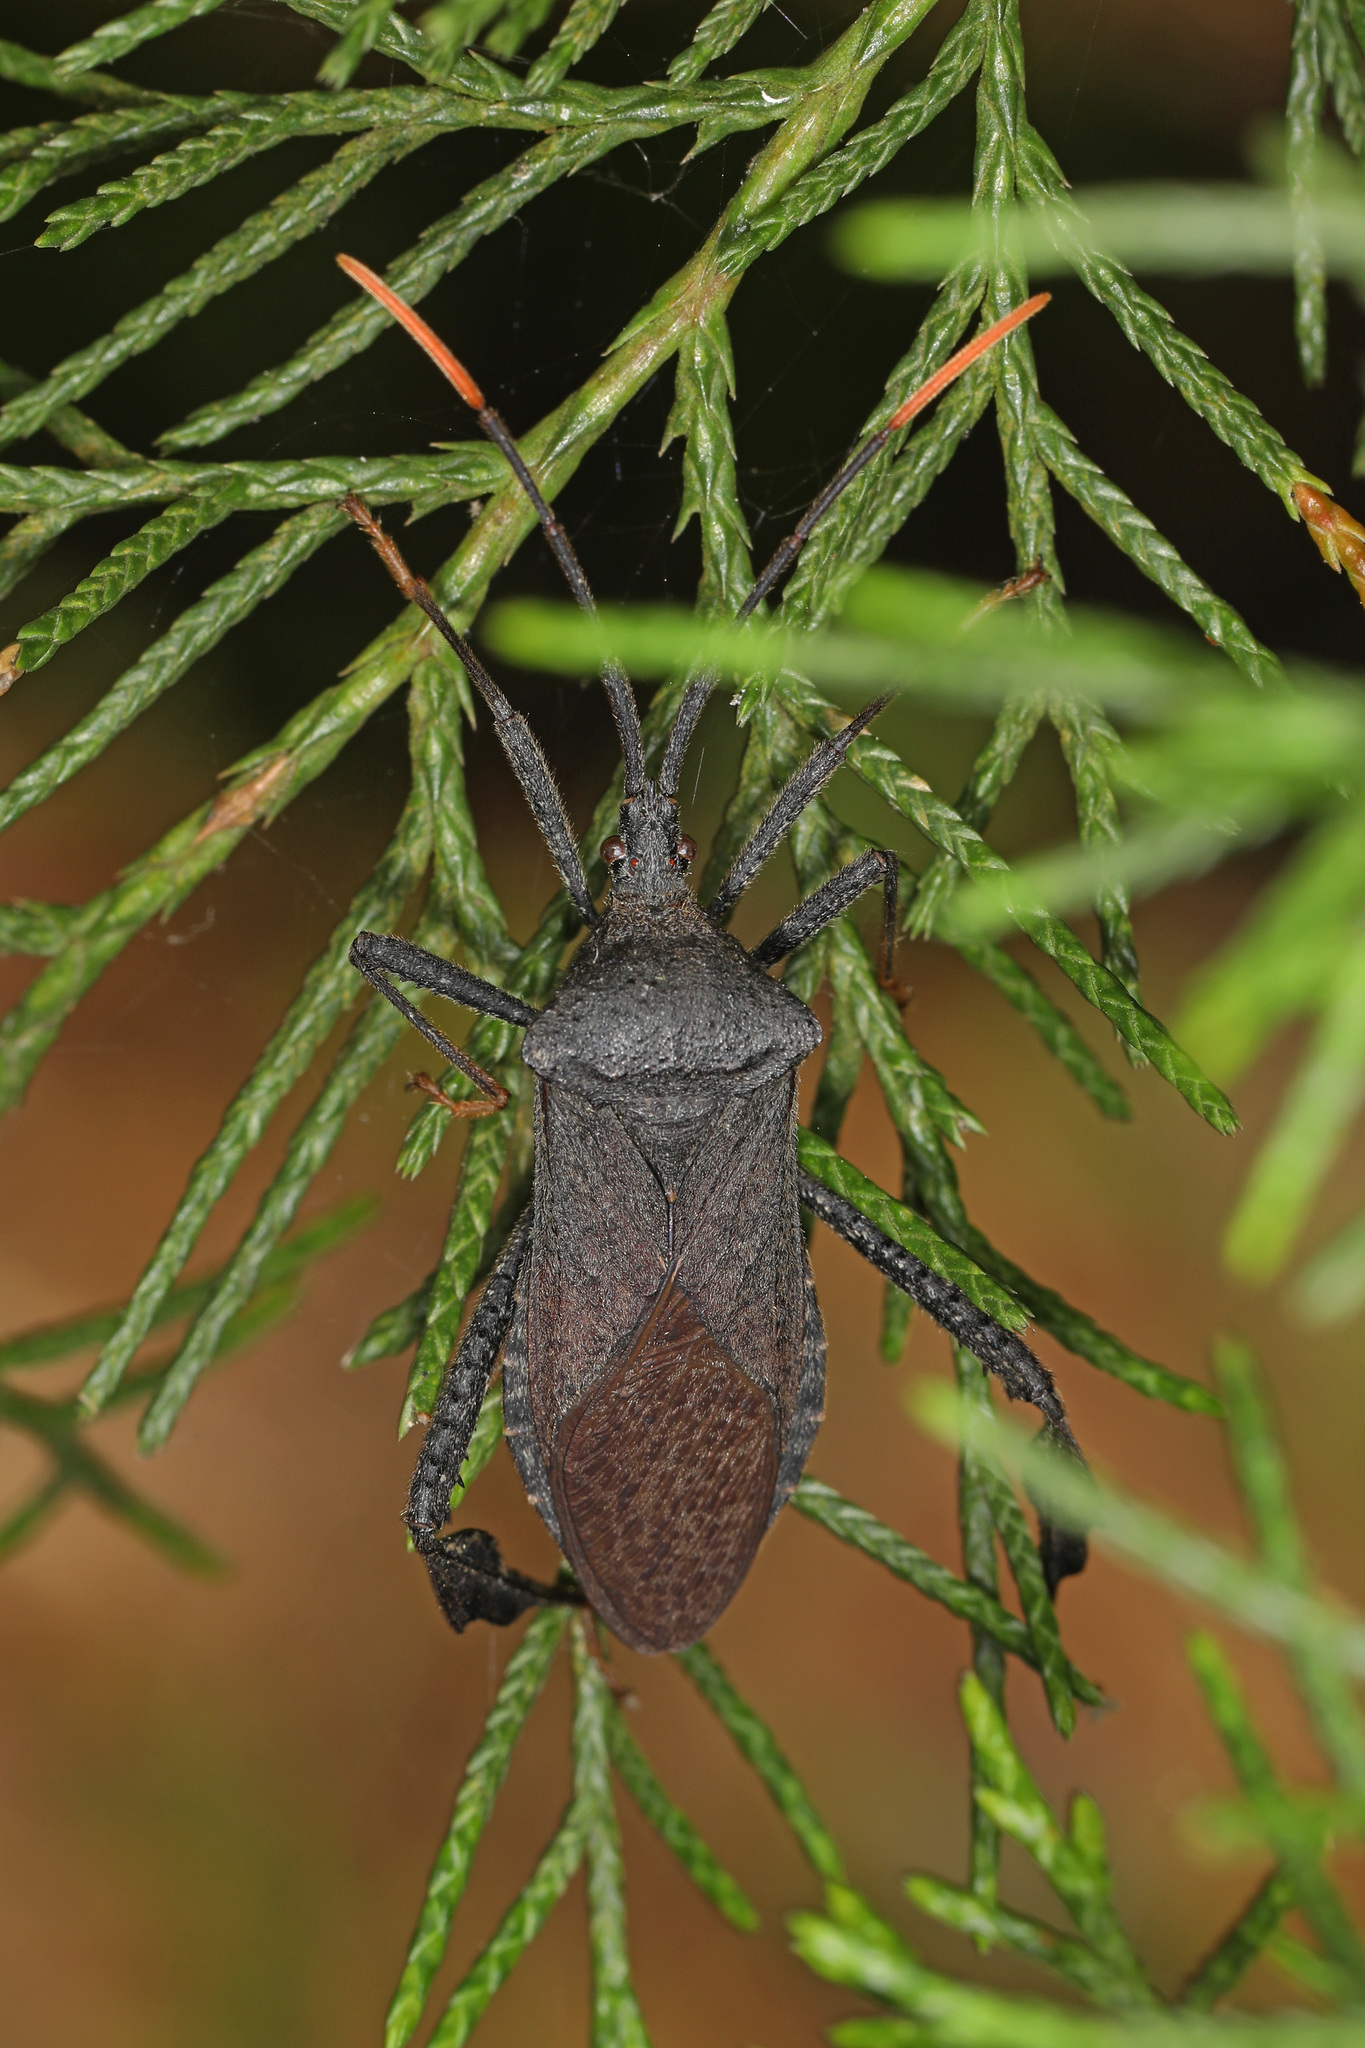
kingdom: Animalia
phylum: Arthropoda
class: Insecta
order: Hemiptera
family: Coreidae
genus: Acanthocephala
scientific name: Acanthocephala terminalis
